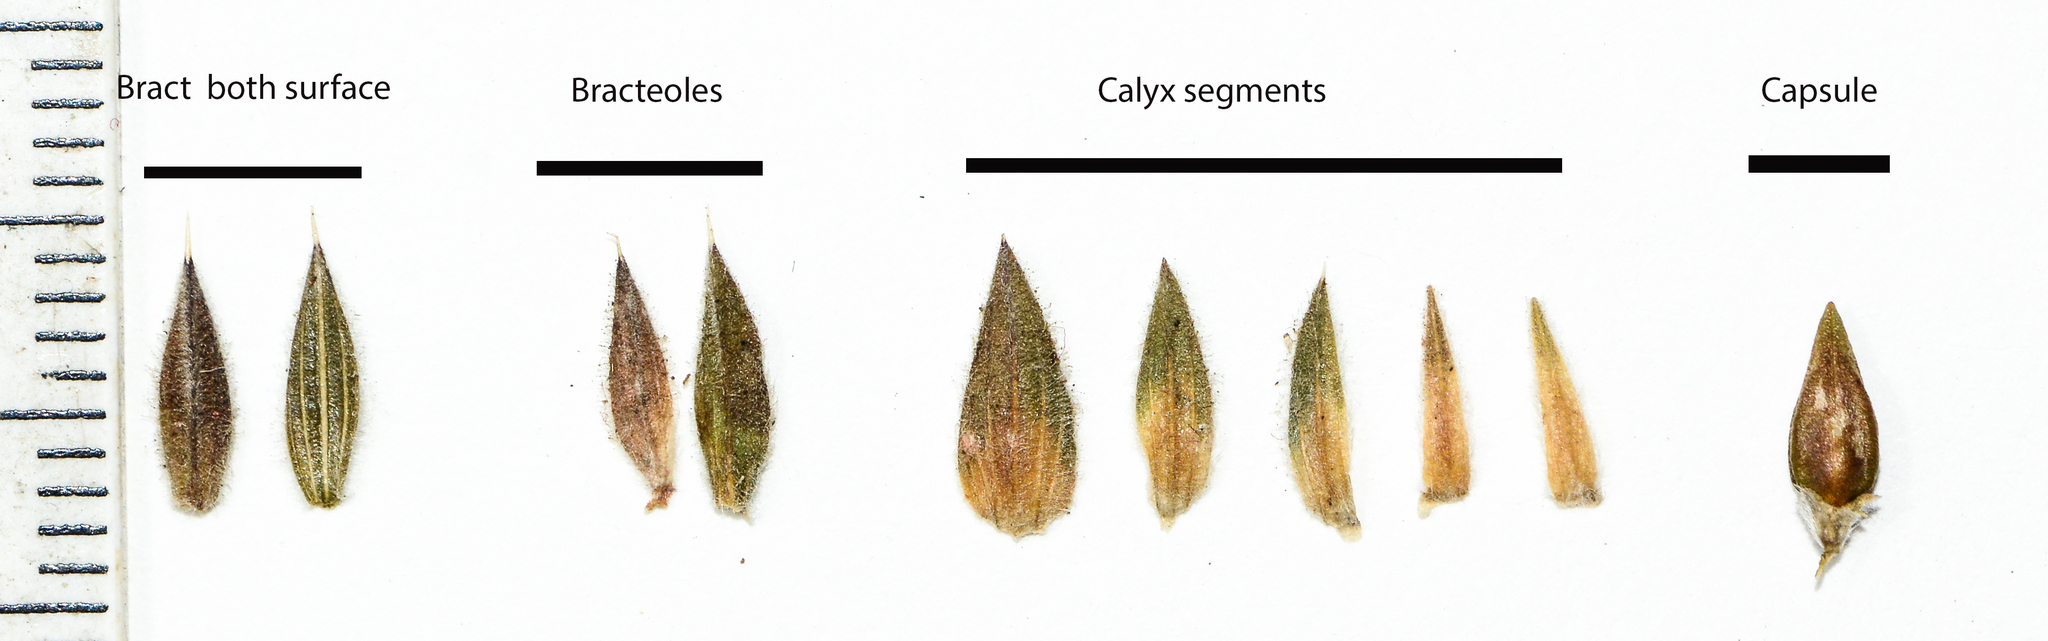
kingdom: Plantae
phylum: Tracheophyta
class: Magnoliopsida
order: Lamiales
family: Acanthaceae
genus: Lepidagathis
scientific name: Lepidagathis keralensis
